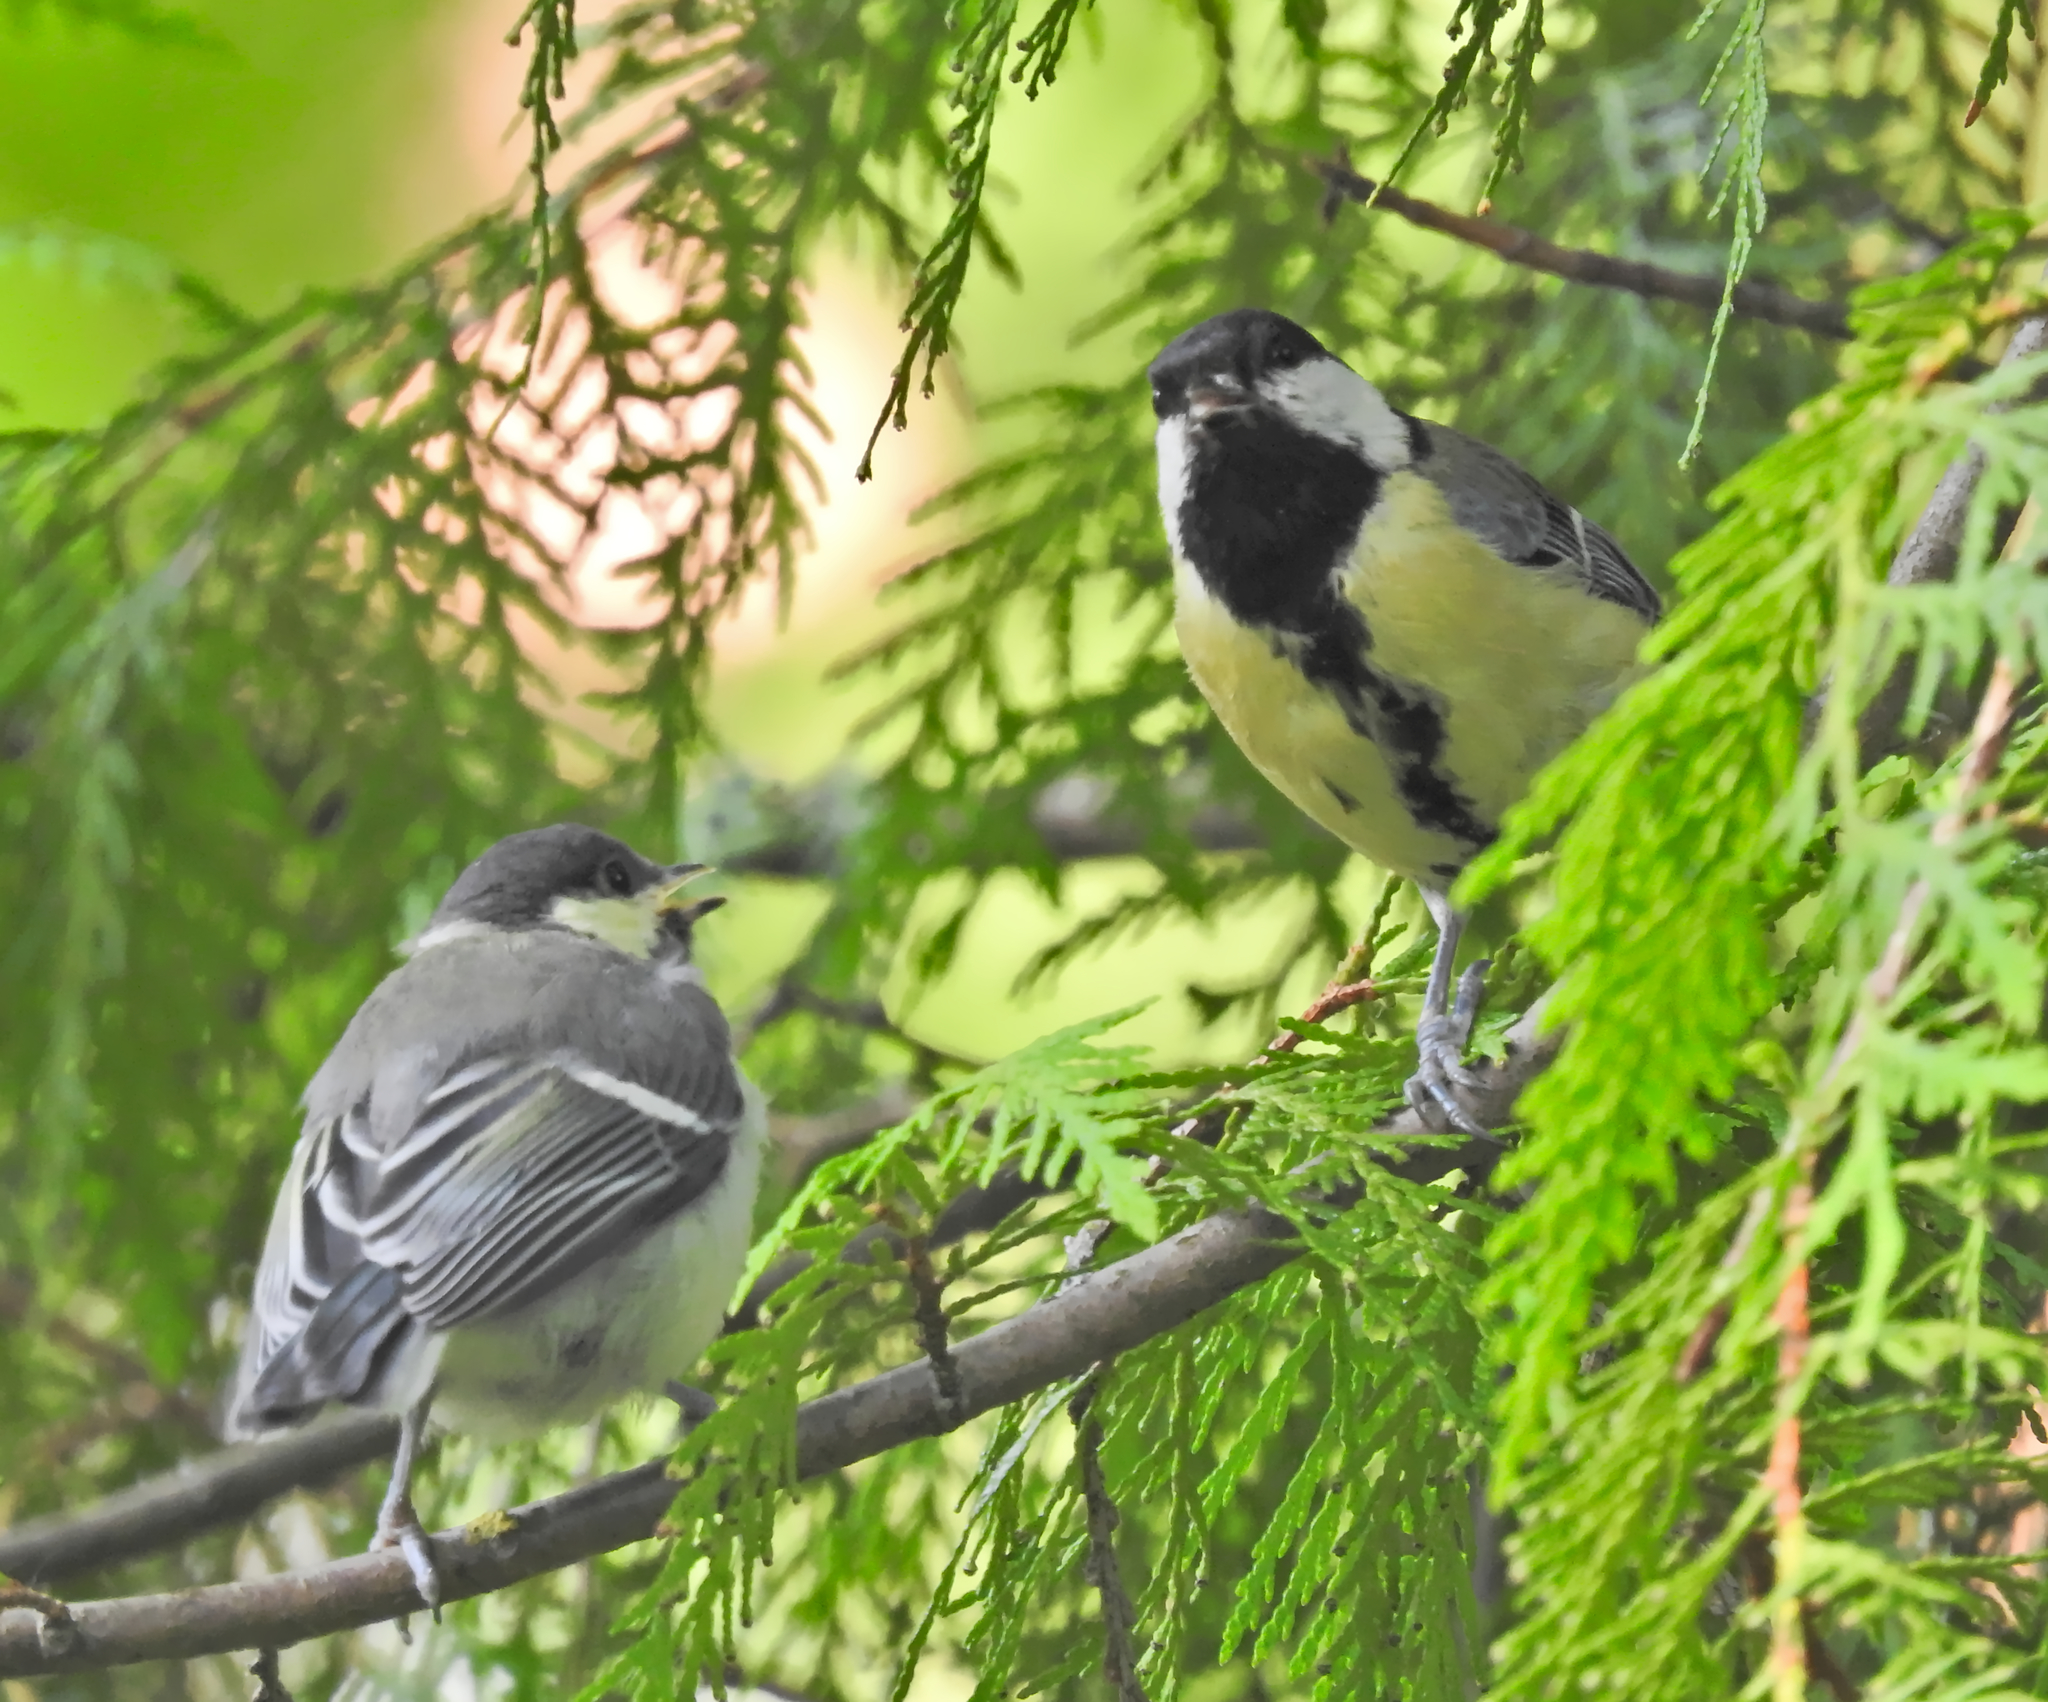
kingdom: Animalia
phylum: Chordata
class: Aves
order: Passeriformes
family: Paridae
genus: Parus
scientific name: Parus major
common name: Great tit
